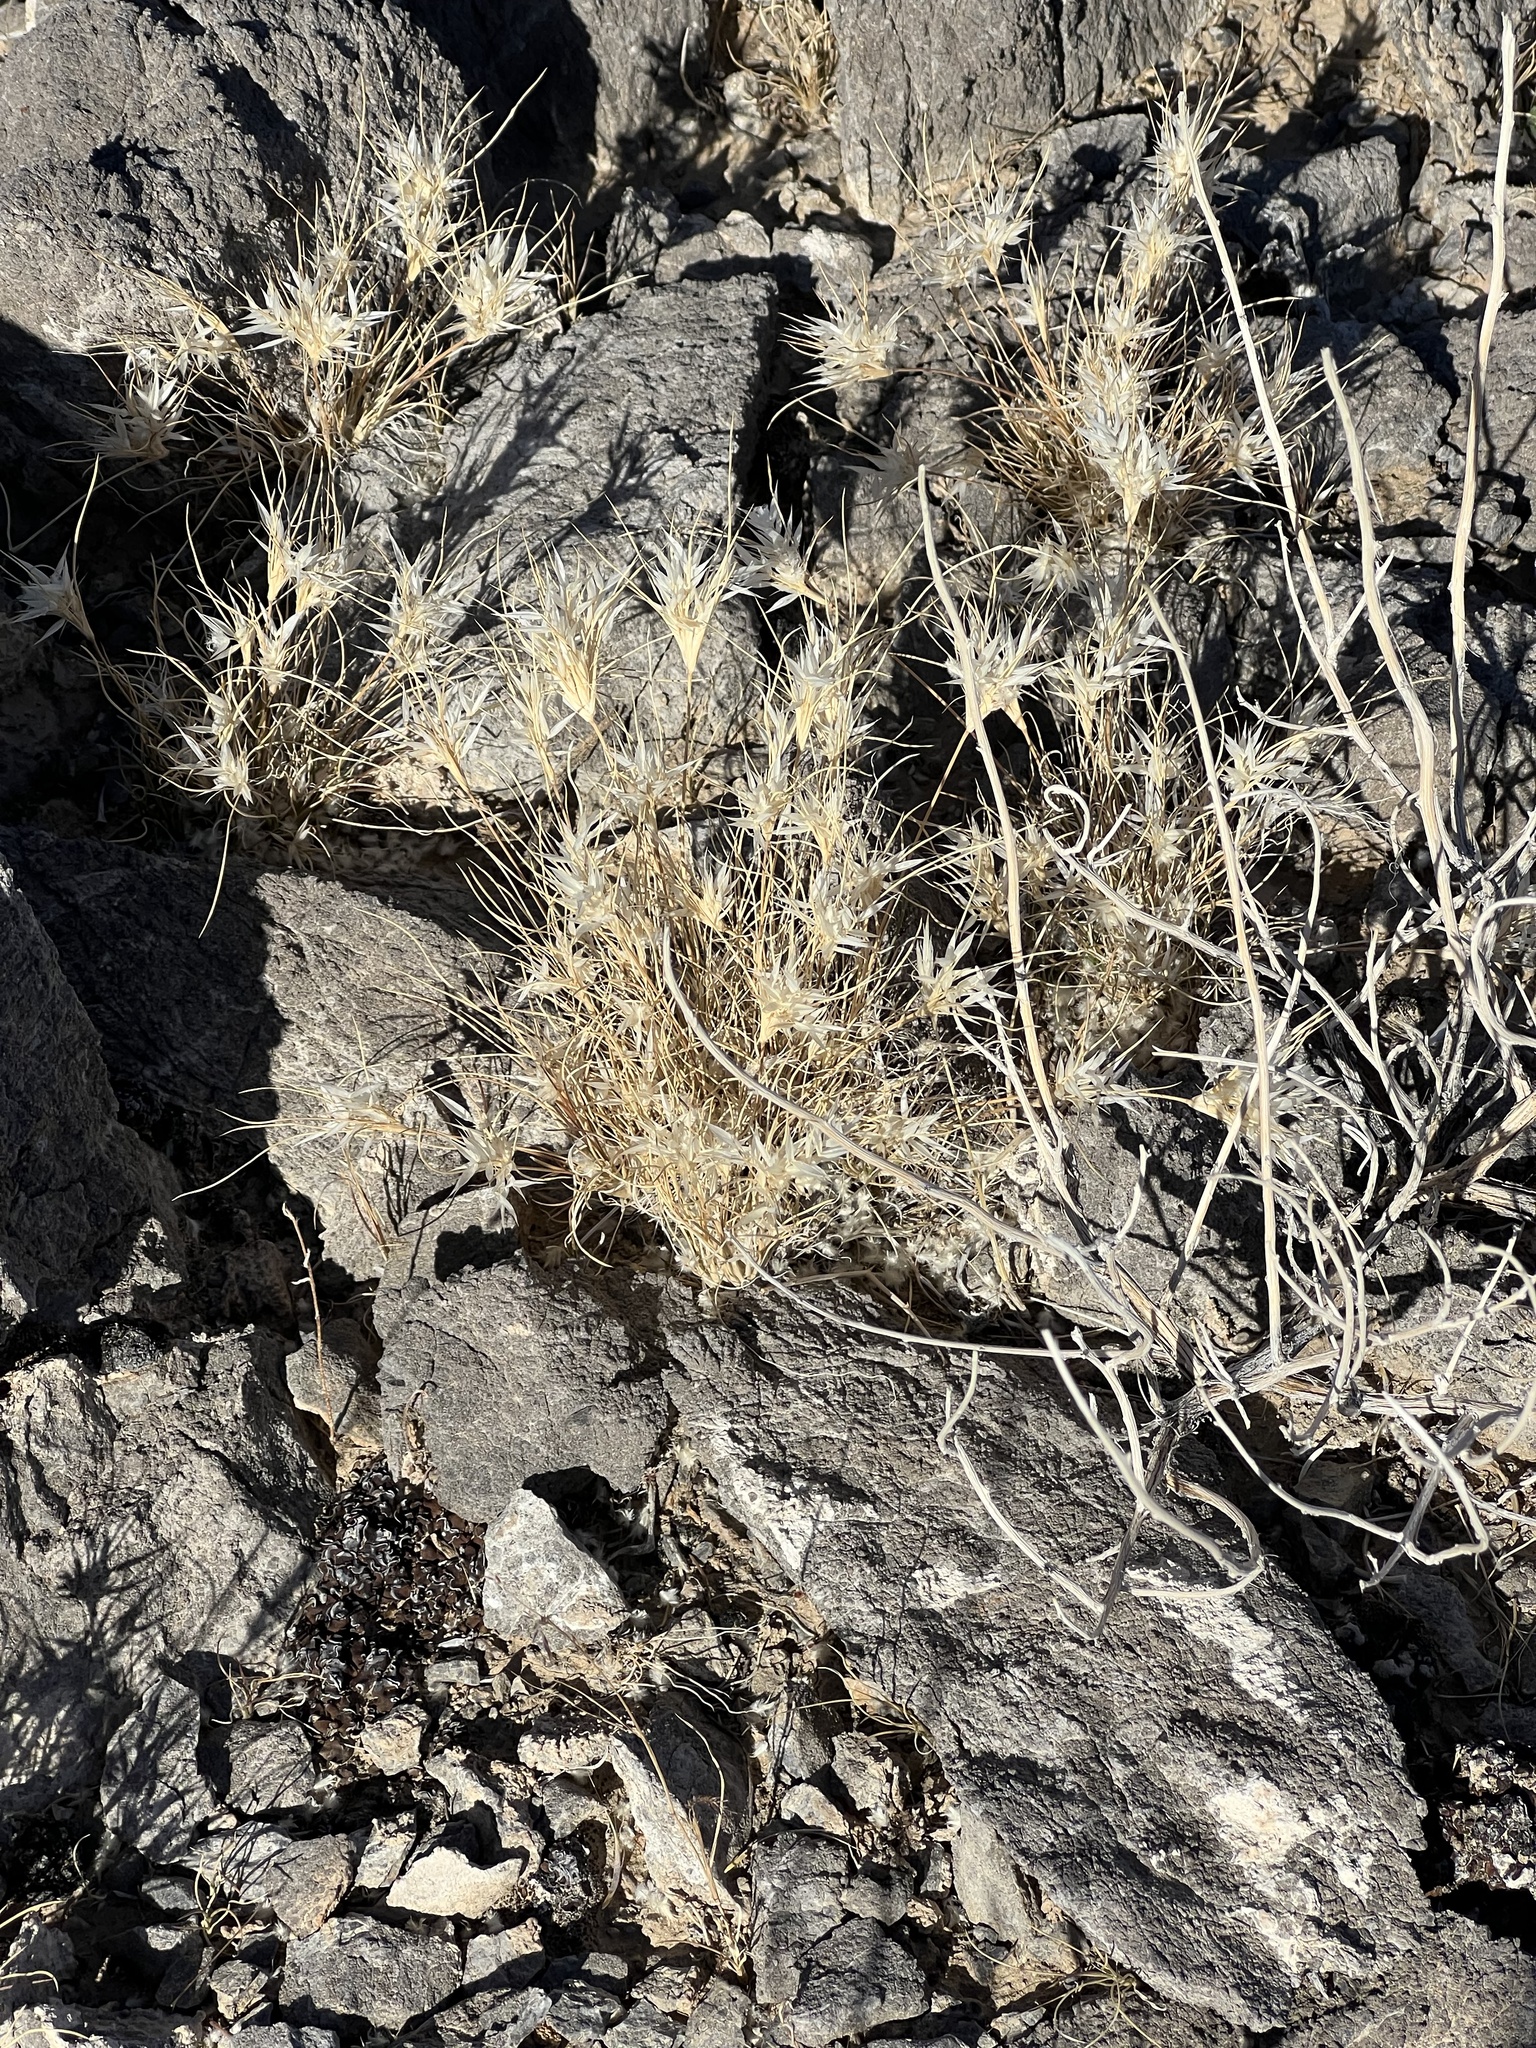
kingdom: Plantae
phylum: Tracheophyta
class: Liliopsida
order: Poales
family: Poaceae
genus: Dasyochloa
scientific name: Dasyochloa pulchella
